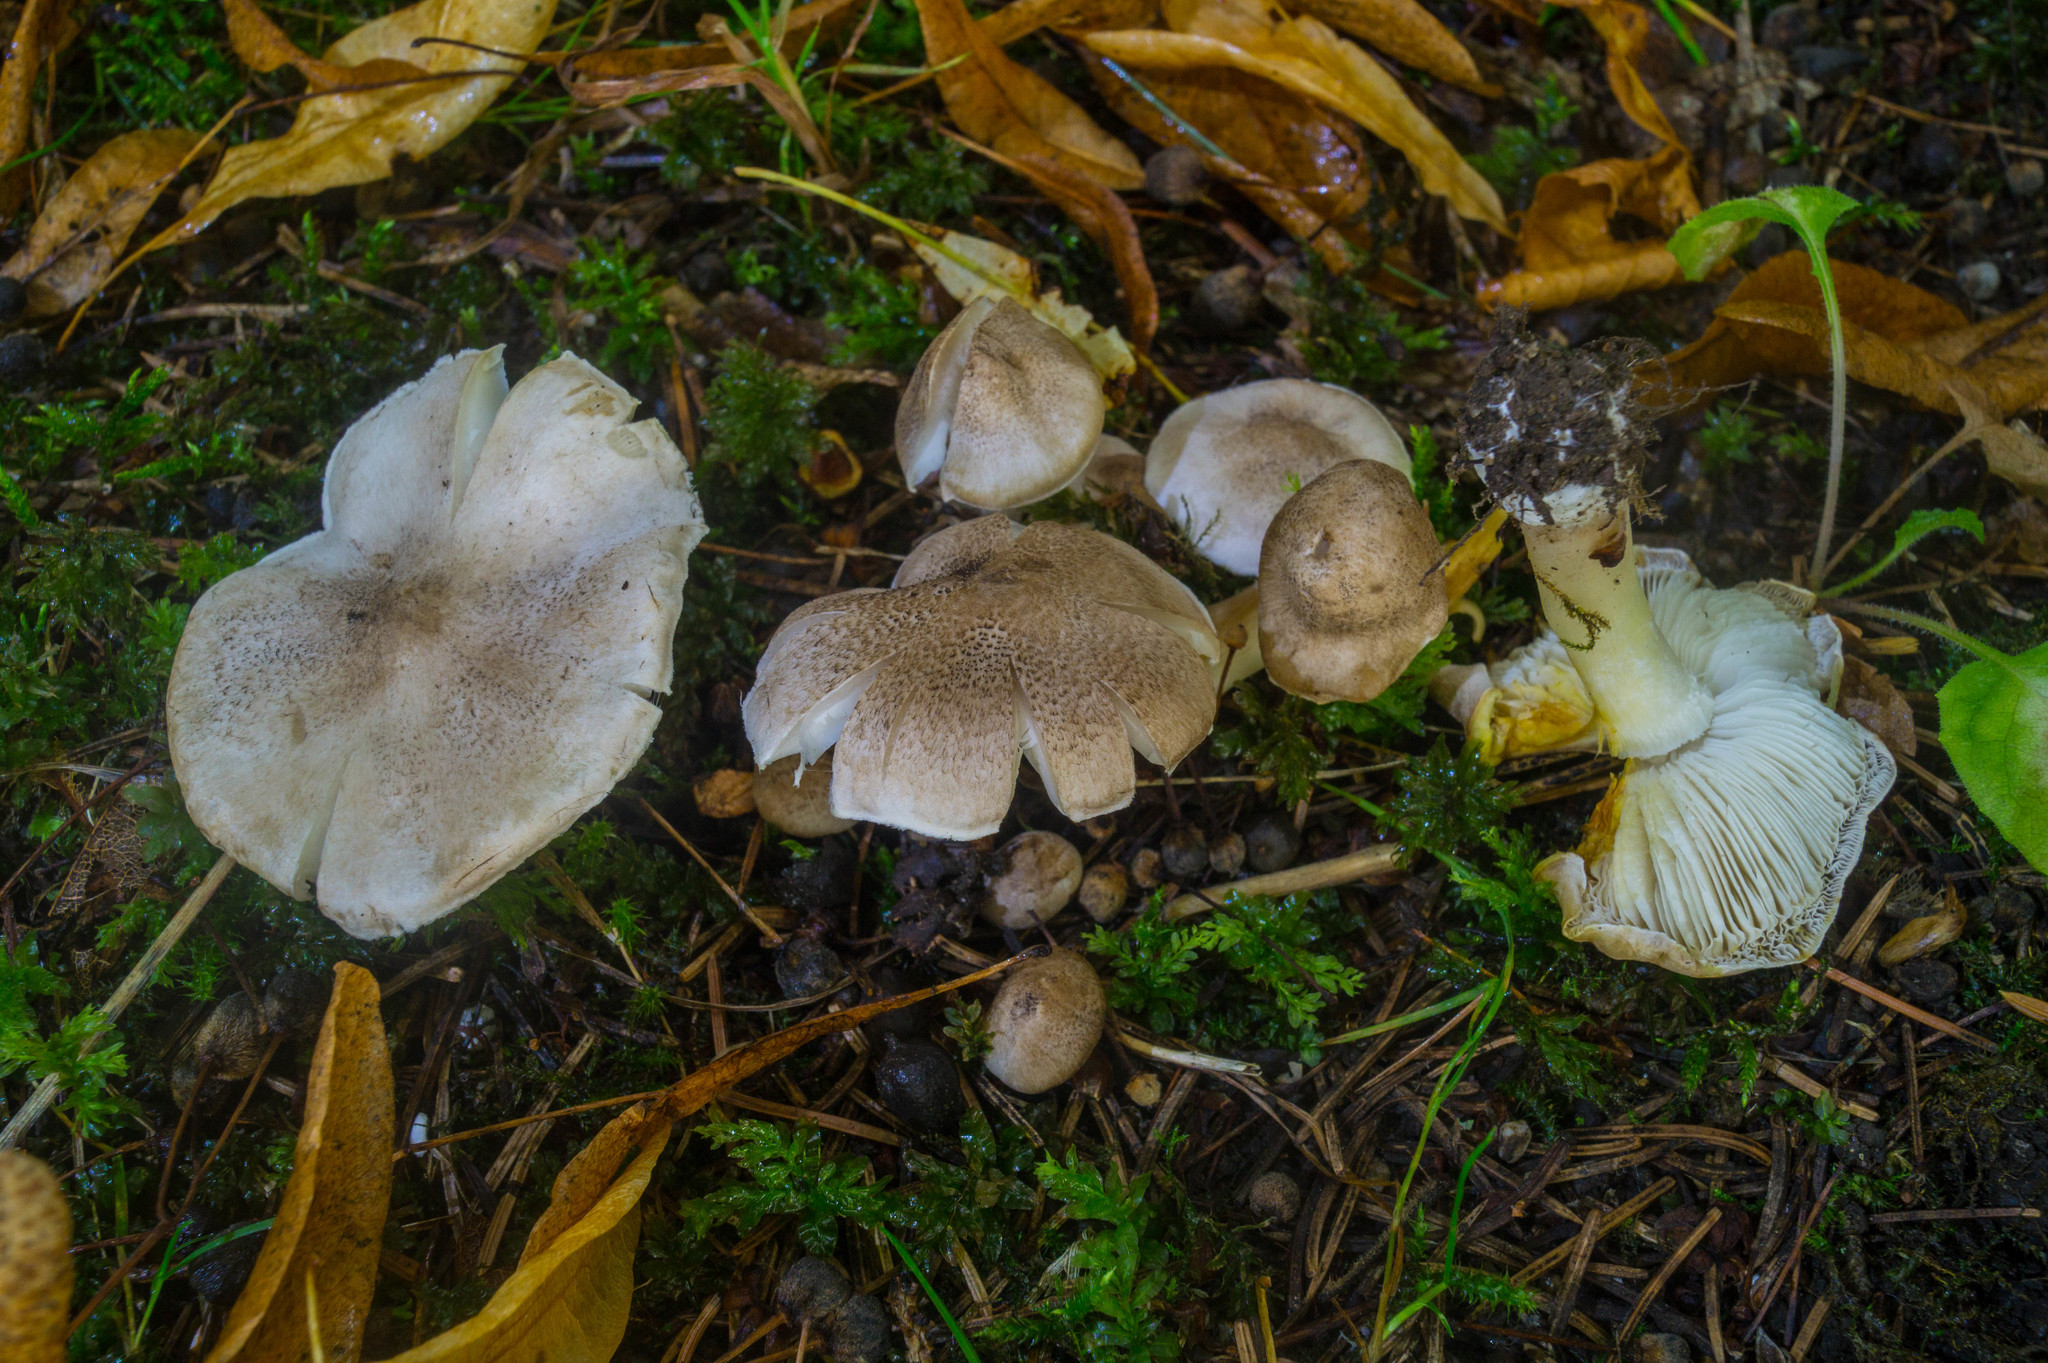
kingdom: Fungi
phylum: Basidiomycota
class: Agaricomycetes
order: Agaricales
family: Tricholomataceae
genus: Tricholoma
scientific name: Tricholoma scalpturatum
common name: Yellowing knight
